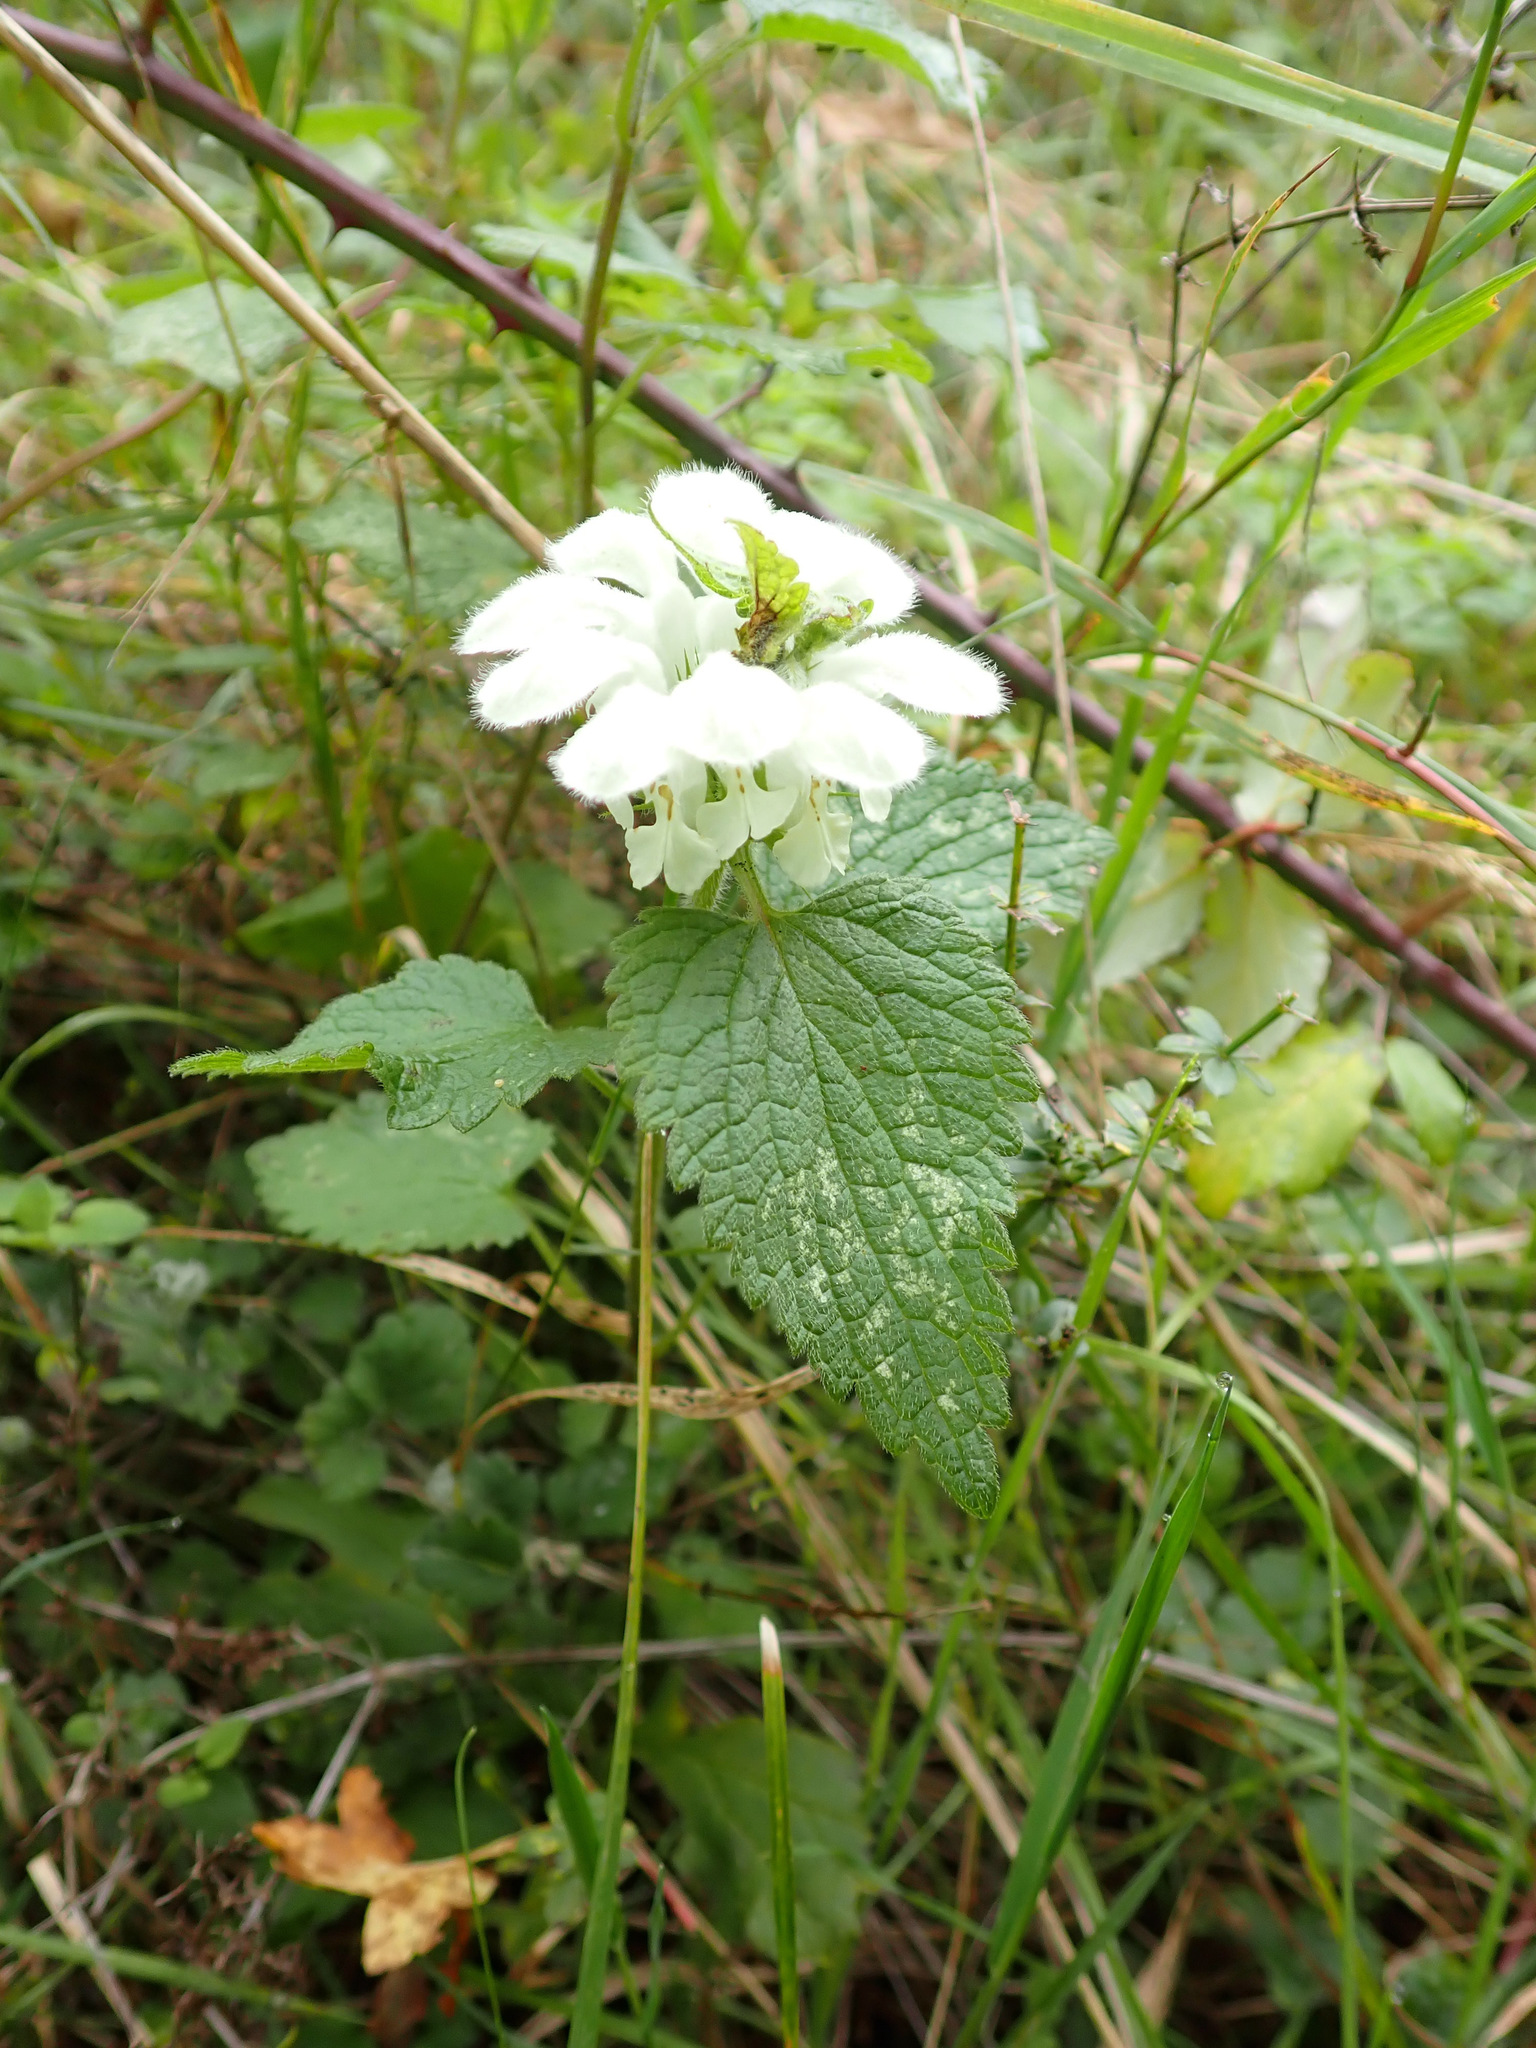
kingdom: Plantae
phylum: Tracheophyta
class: Magnoliopsida
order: Lamiales
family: Lamiaceae
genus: Lamium
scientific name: Lamium album
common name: White dead-nettle
